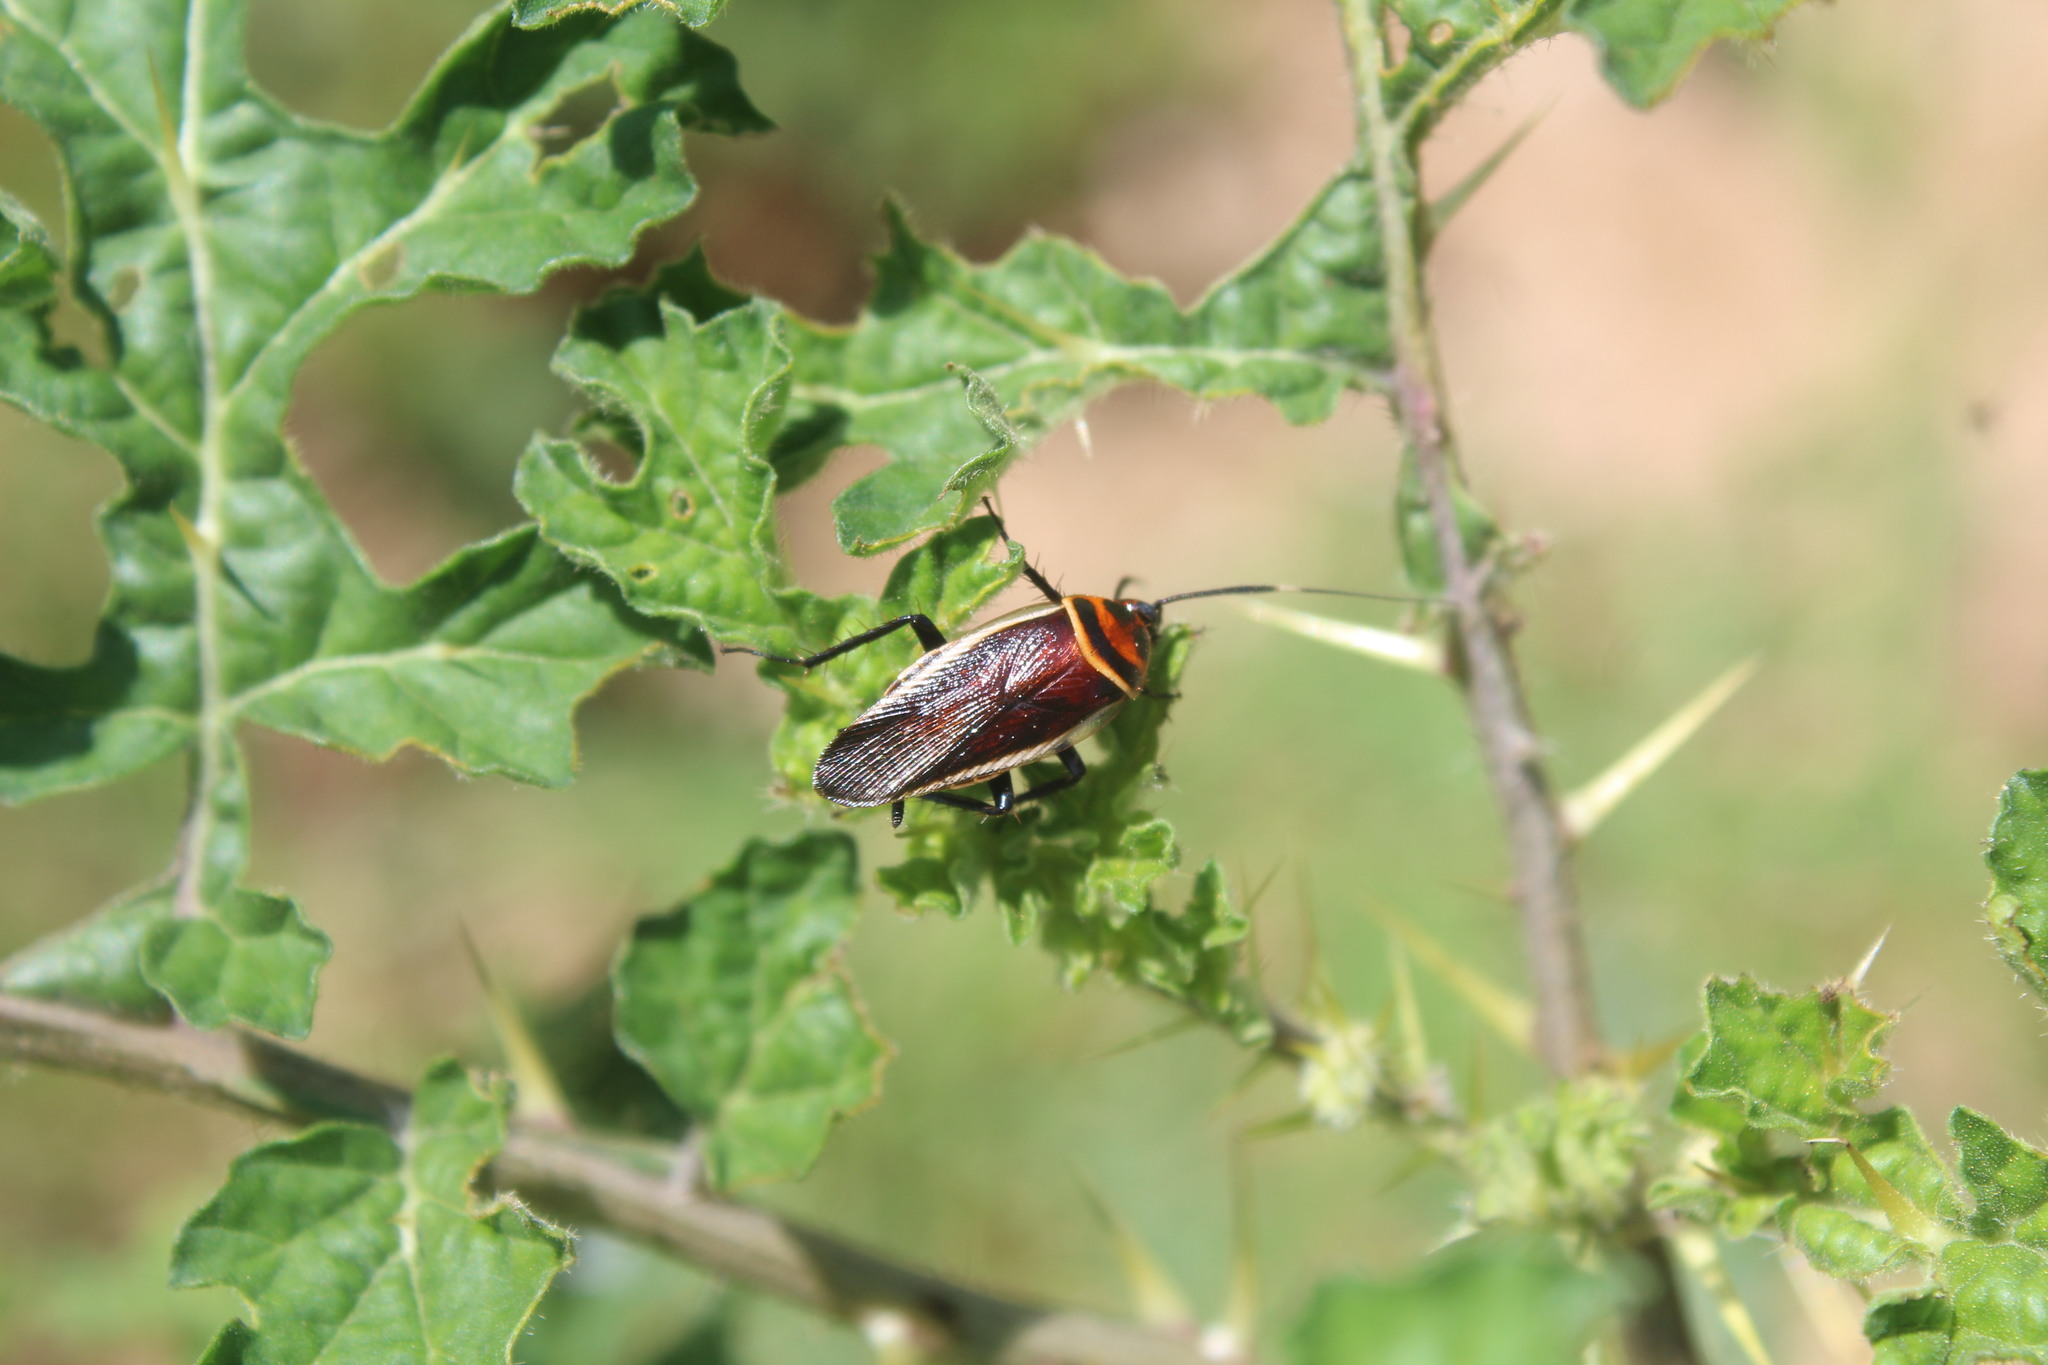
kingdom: Animalia
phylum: Arthropoda
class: Insecta
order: Blattodea
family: Ectobiidae
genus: Pseudomops
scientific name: Pseudomops interceptus
